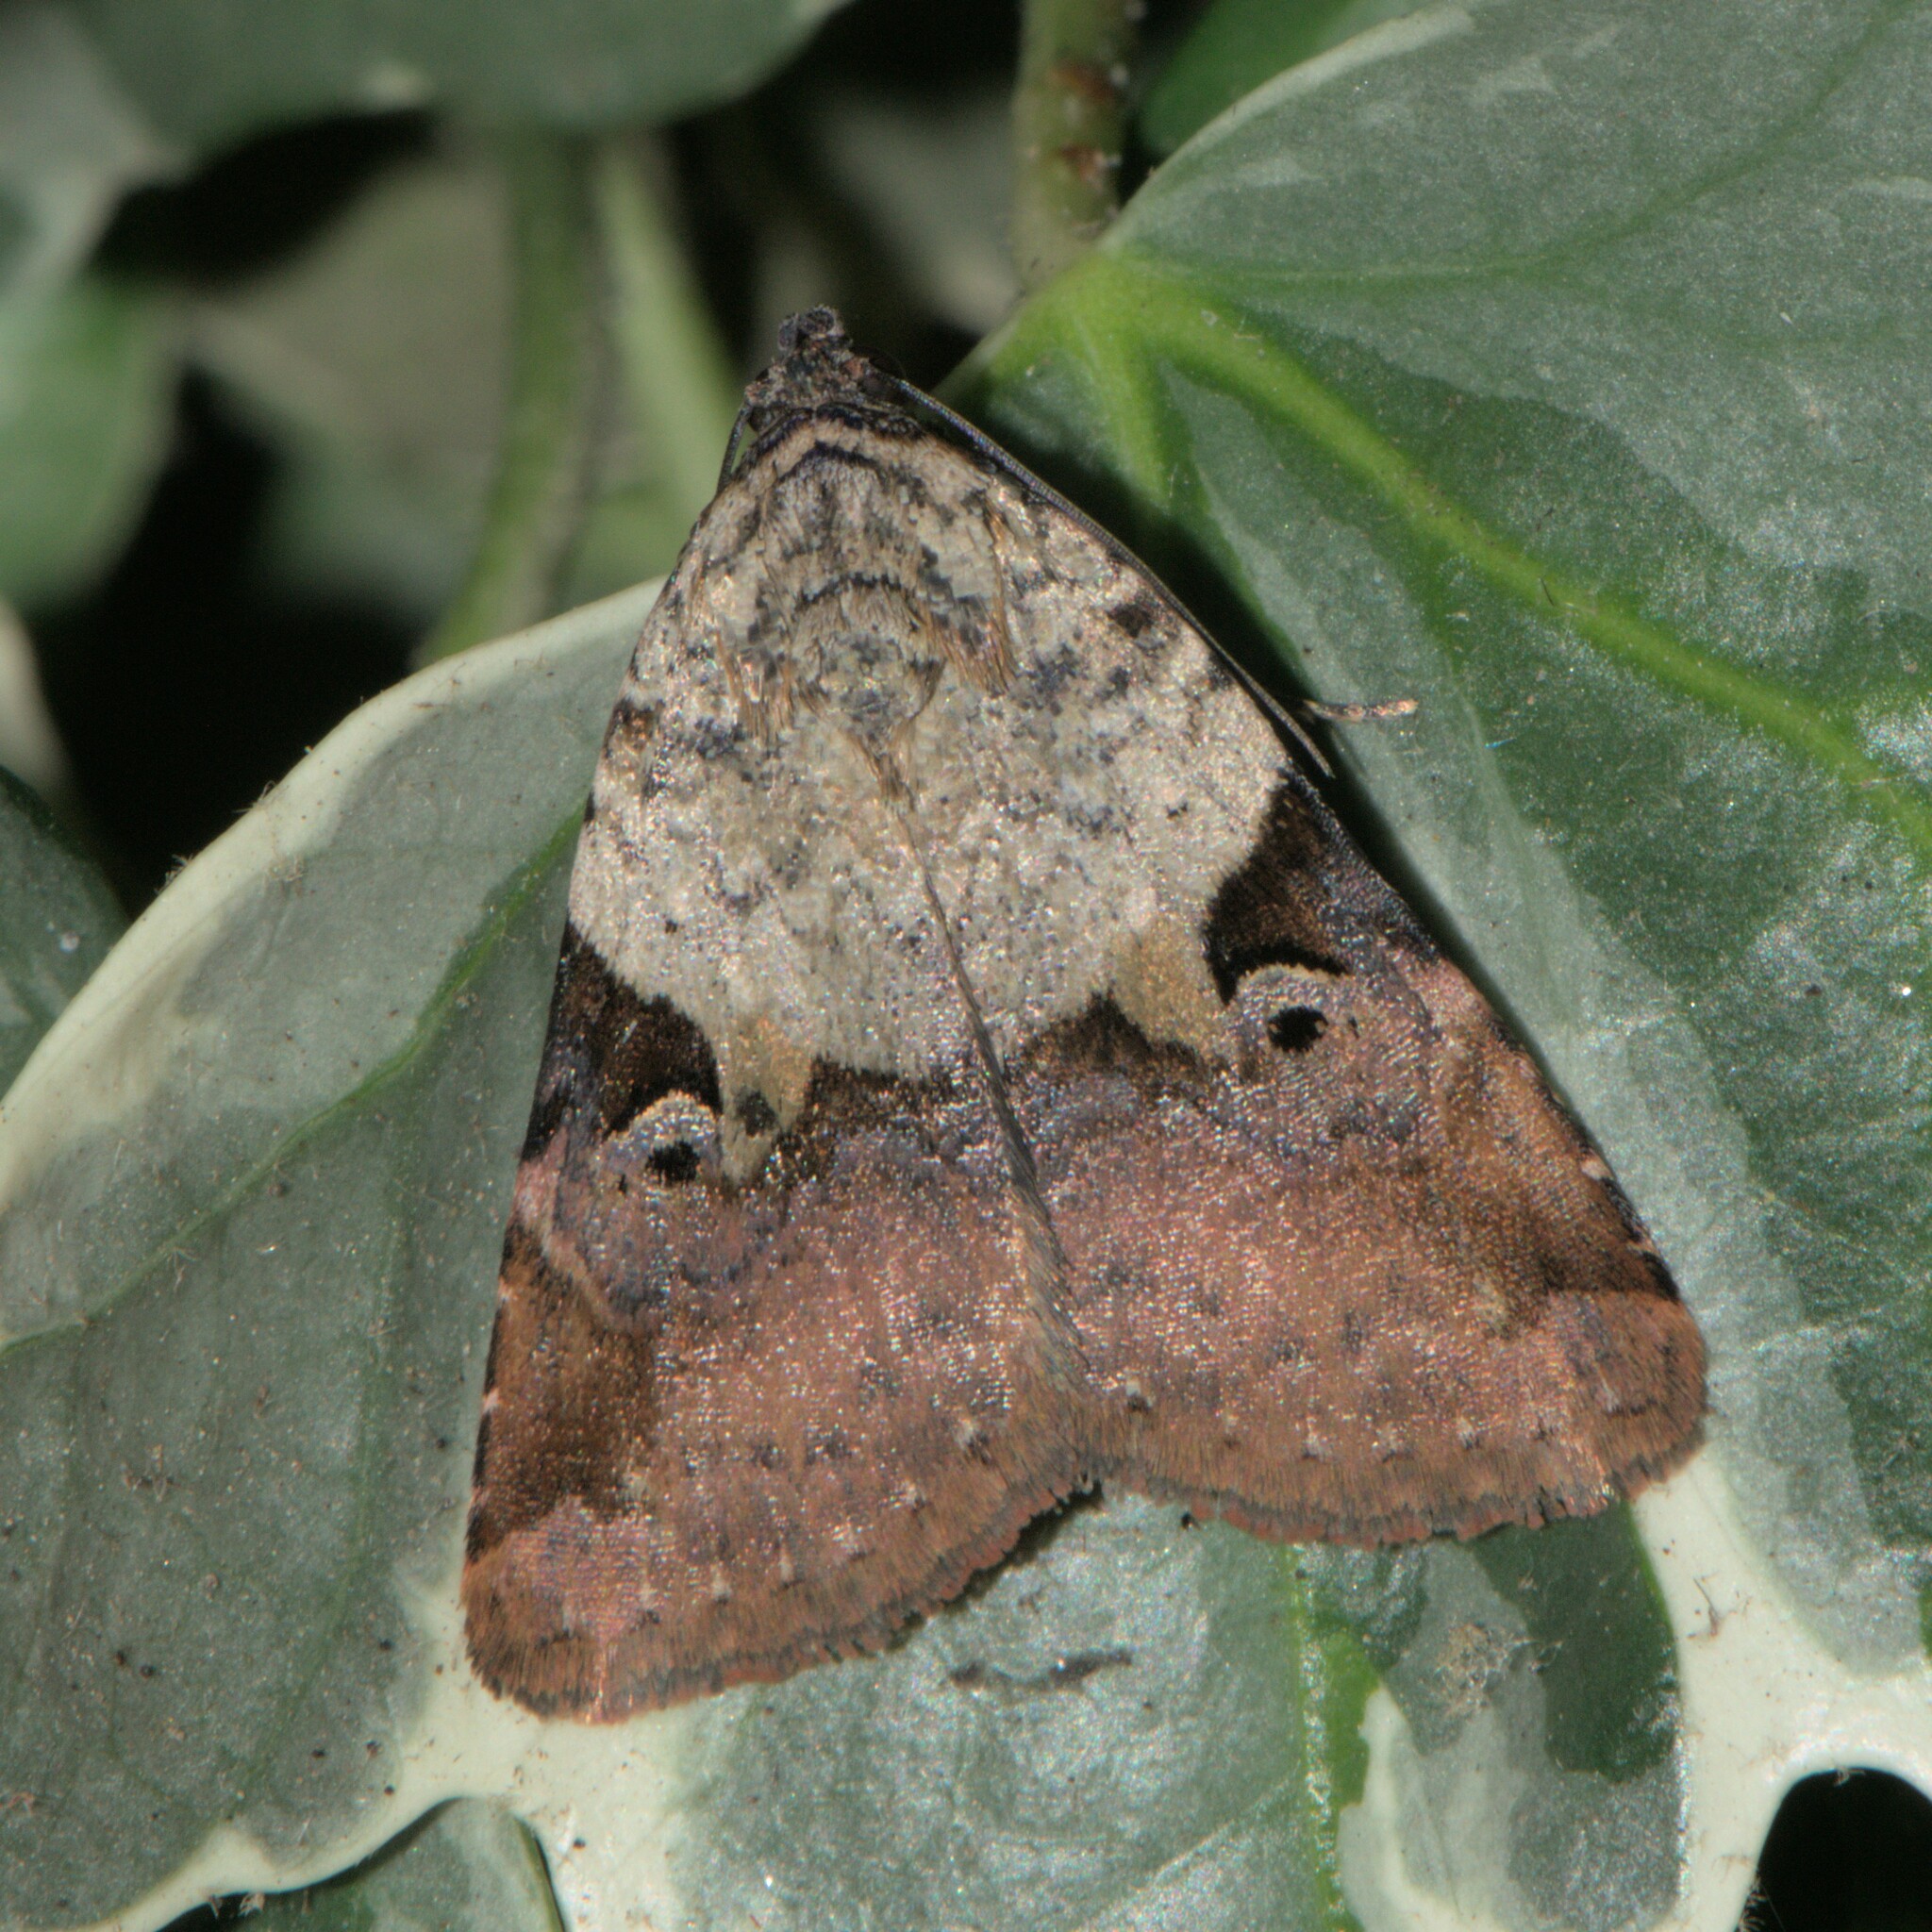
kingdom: Animalia
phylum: Arthropoda
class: Insecta
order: Lepidoptera
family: Noctuidae
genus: Pseudeustrotia
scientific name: Pseudeustrotia dimera
